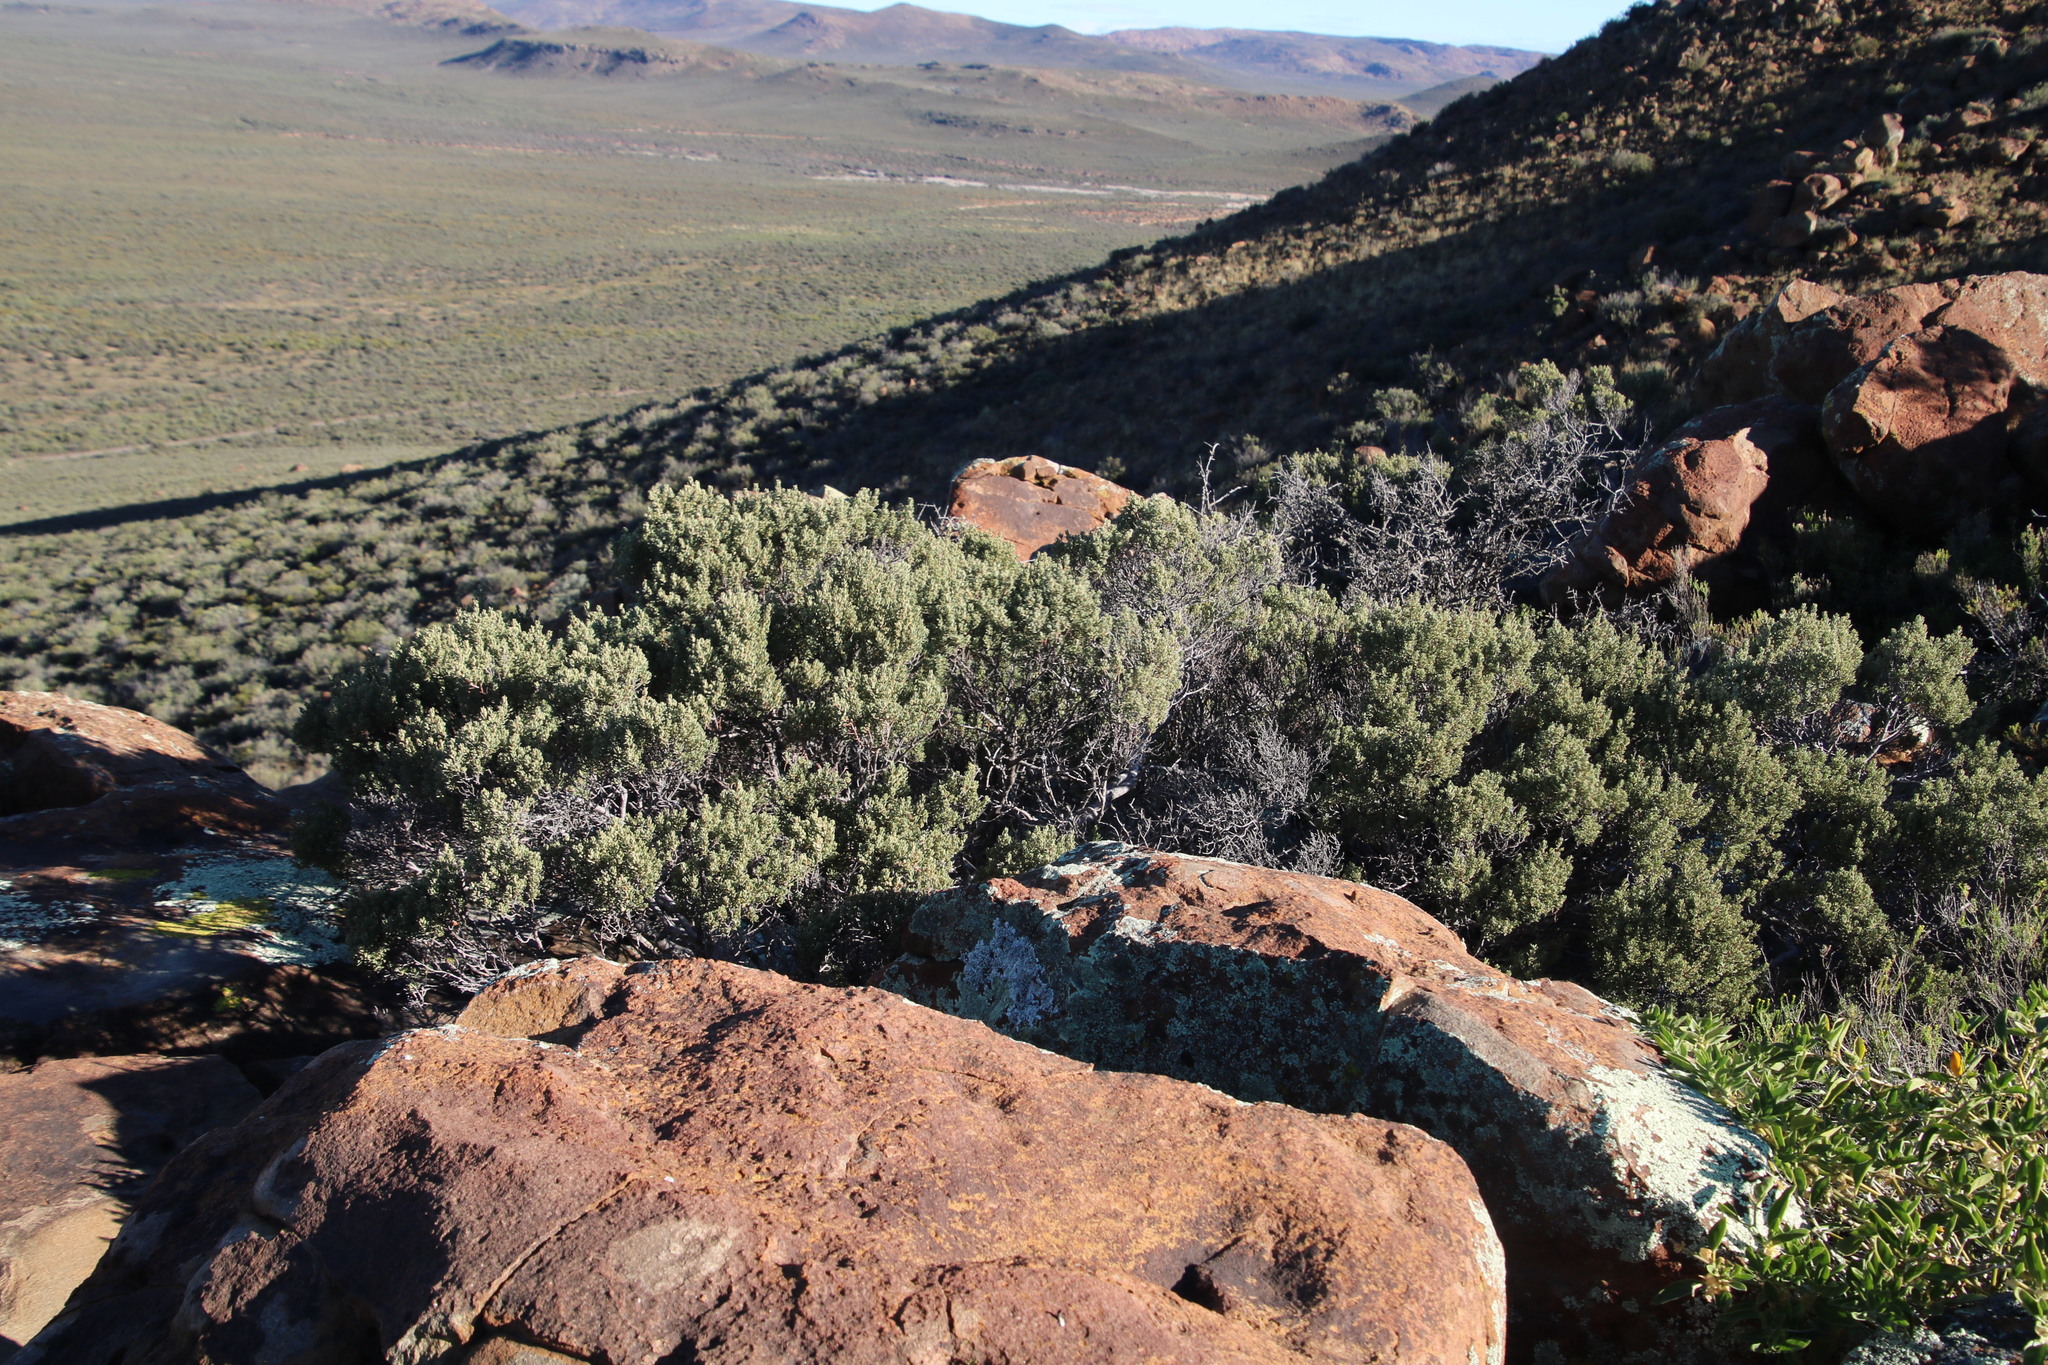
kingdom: Plantae
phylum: Tracheophyta
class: Magnoliopsida
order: Ericales
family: Ebenaceae
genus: Diospyros
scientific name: Diospyros pubescens
